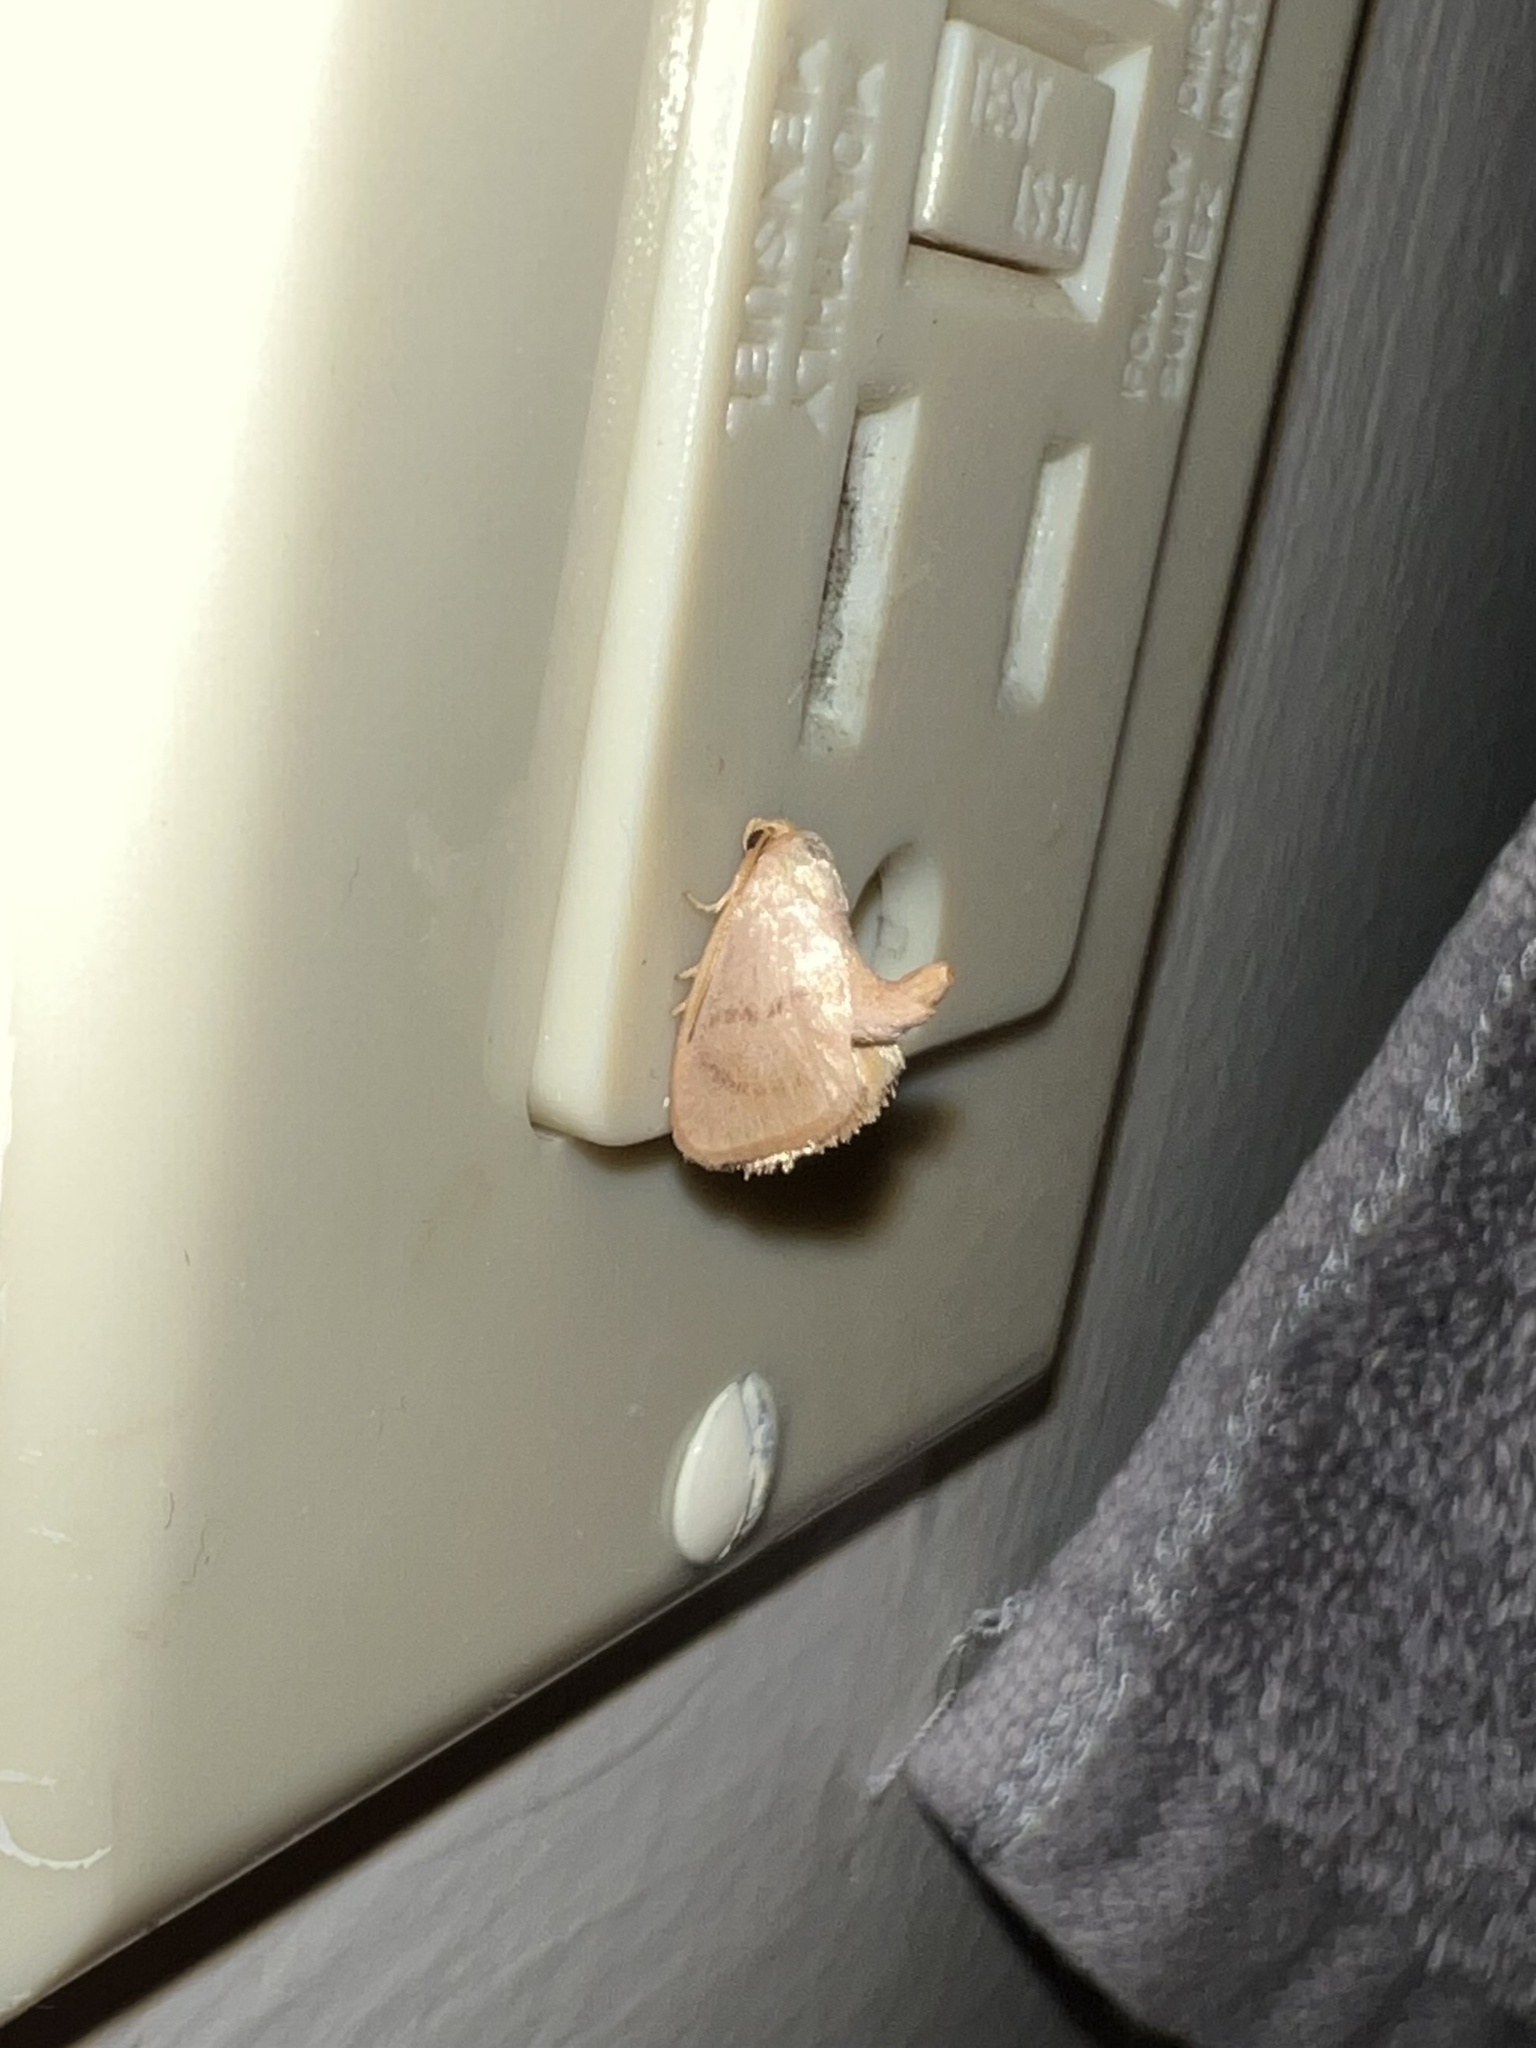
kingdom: Animalia
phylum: Arthropoda
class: Insecta
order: Lepidoptera
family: Limacodidae
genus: Tortricidia
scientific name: Tortricidia pallida
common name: Red-crossed button slug moth
